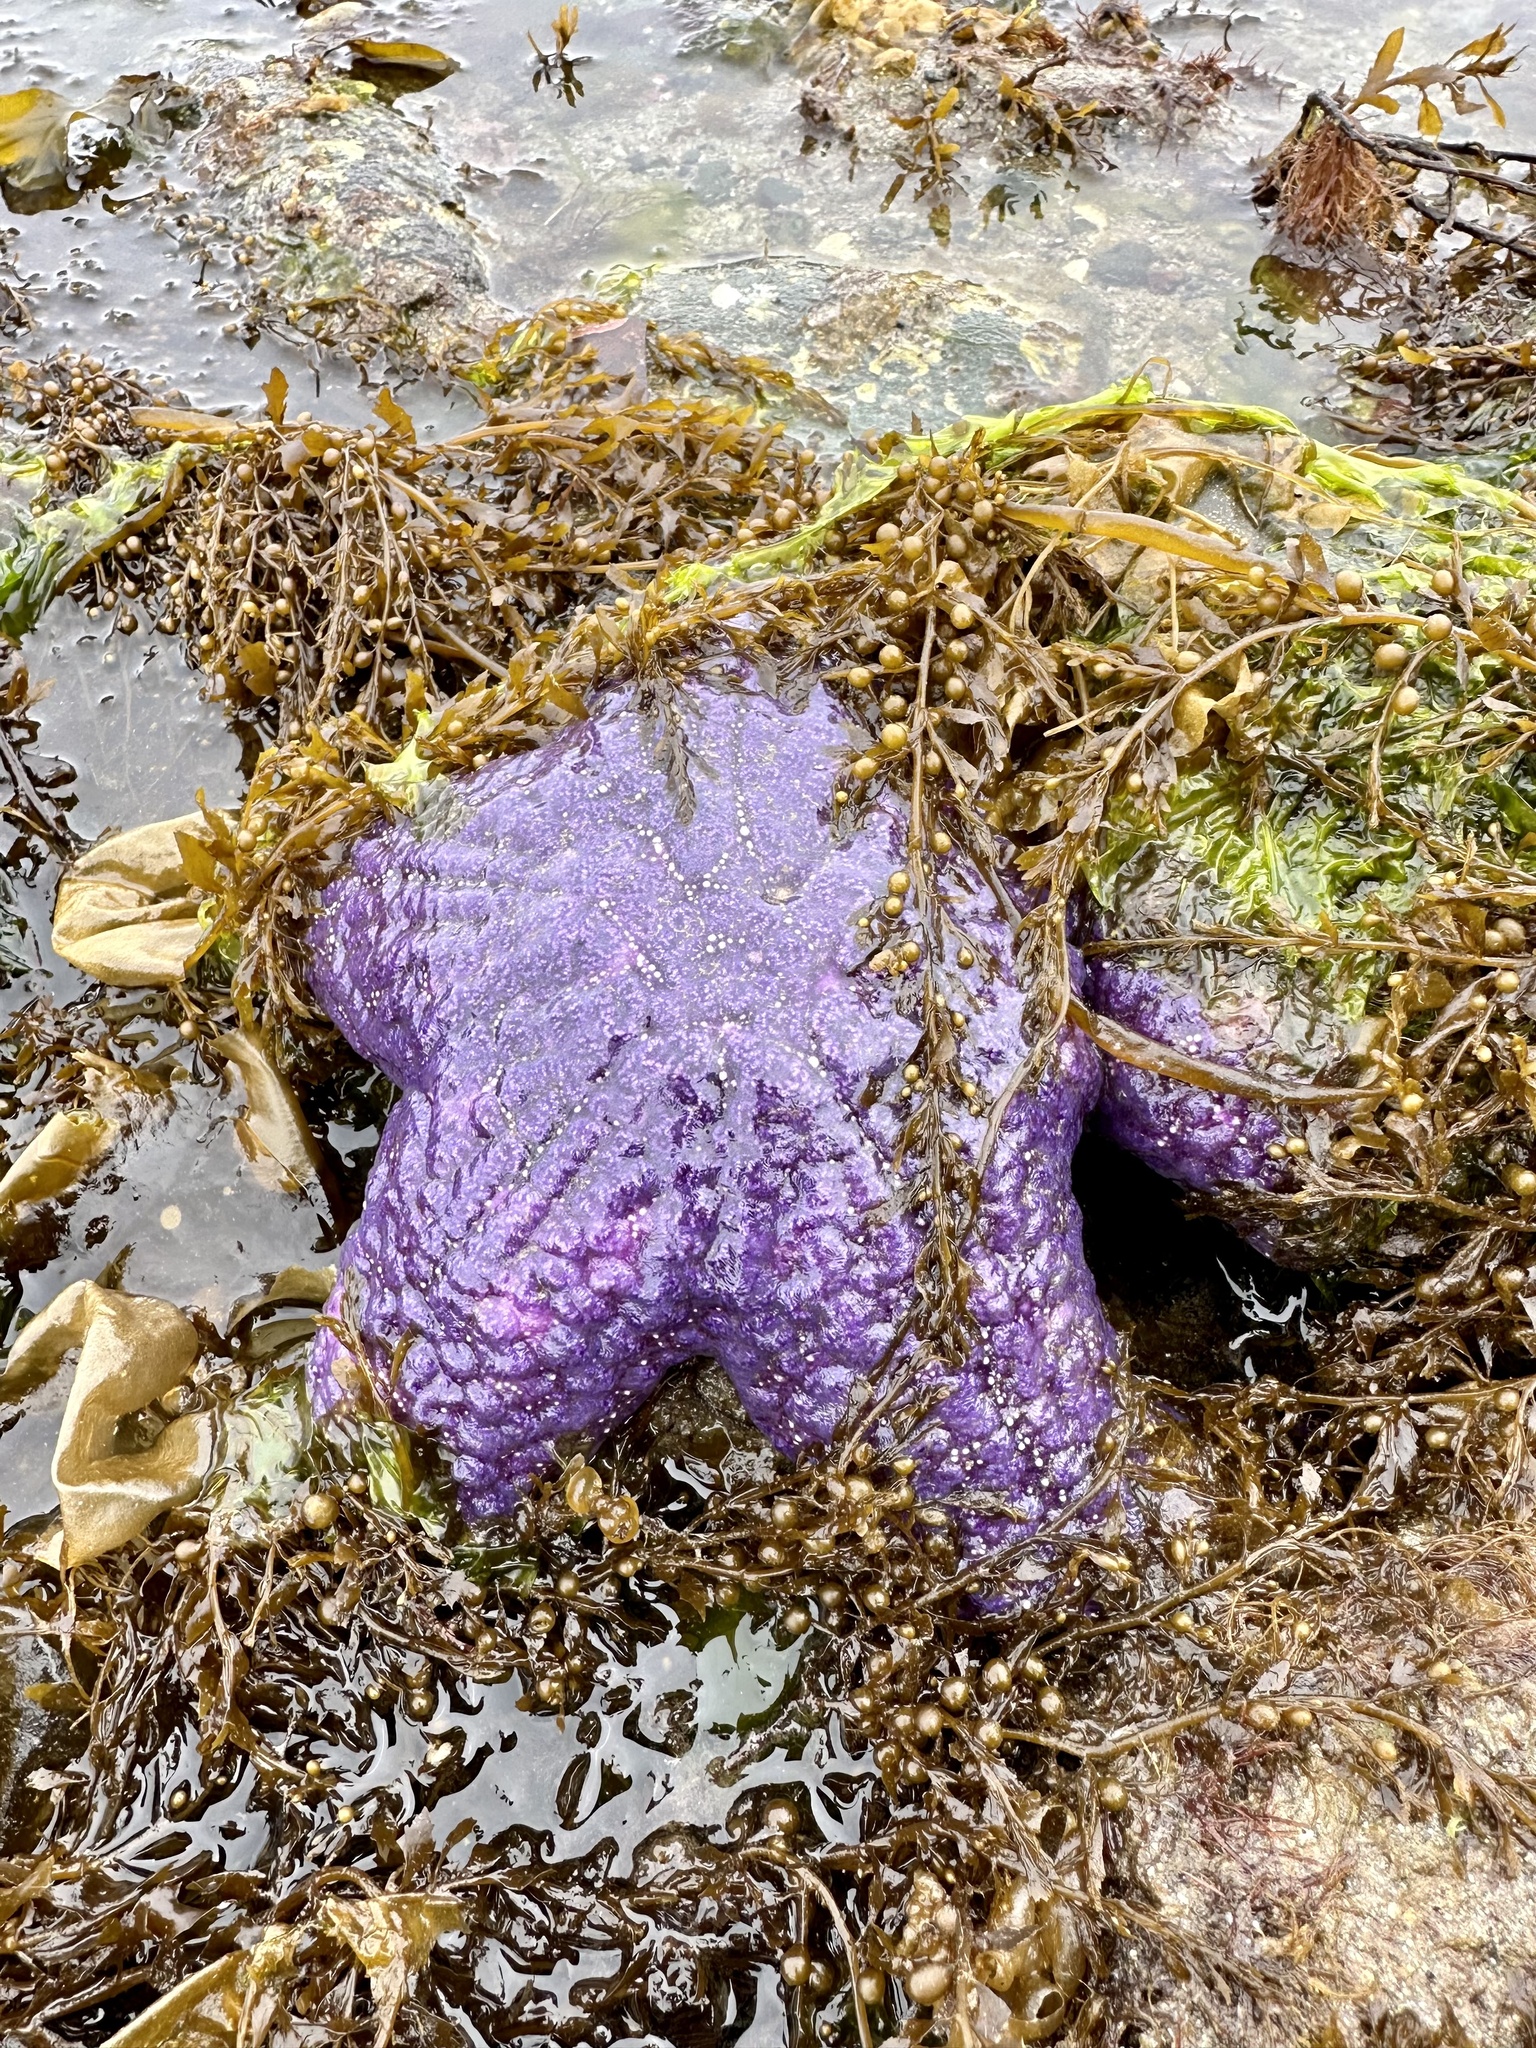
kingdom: Animalia
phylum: Echinodermata
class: Asteroidea
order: Forcipulatida
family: Asteriidae
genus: Pisaster
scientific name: Pisaster ochraceus
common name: Ochre stars
